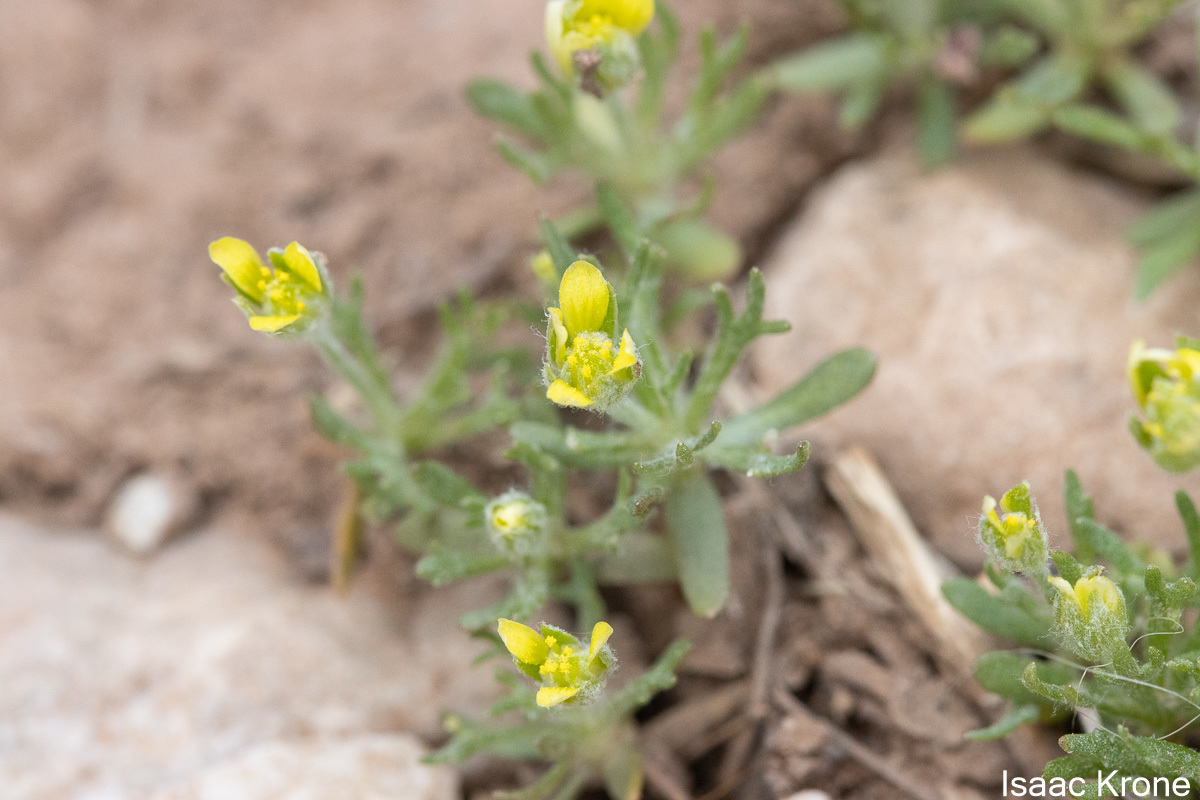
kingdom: Plantae
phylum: Tracheophyta
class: Magnoliopsida
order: Ranunculales
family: Ranunculaceae
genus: Ceratocephala
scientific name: Ceratocephala orthoceras
